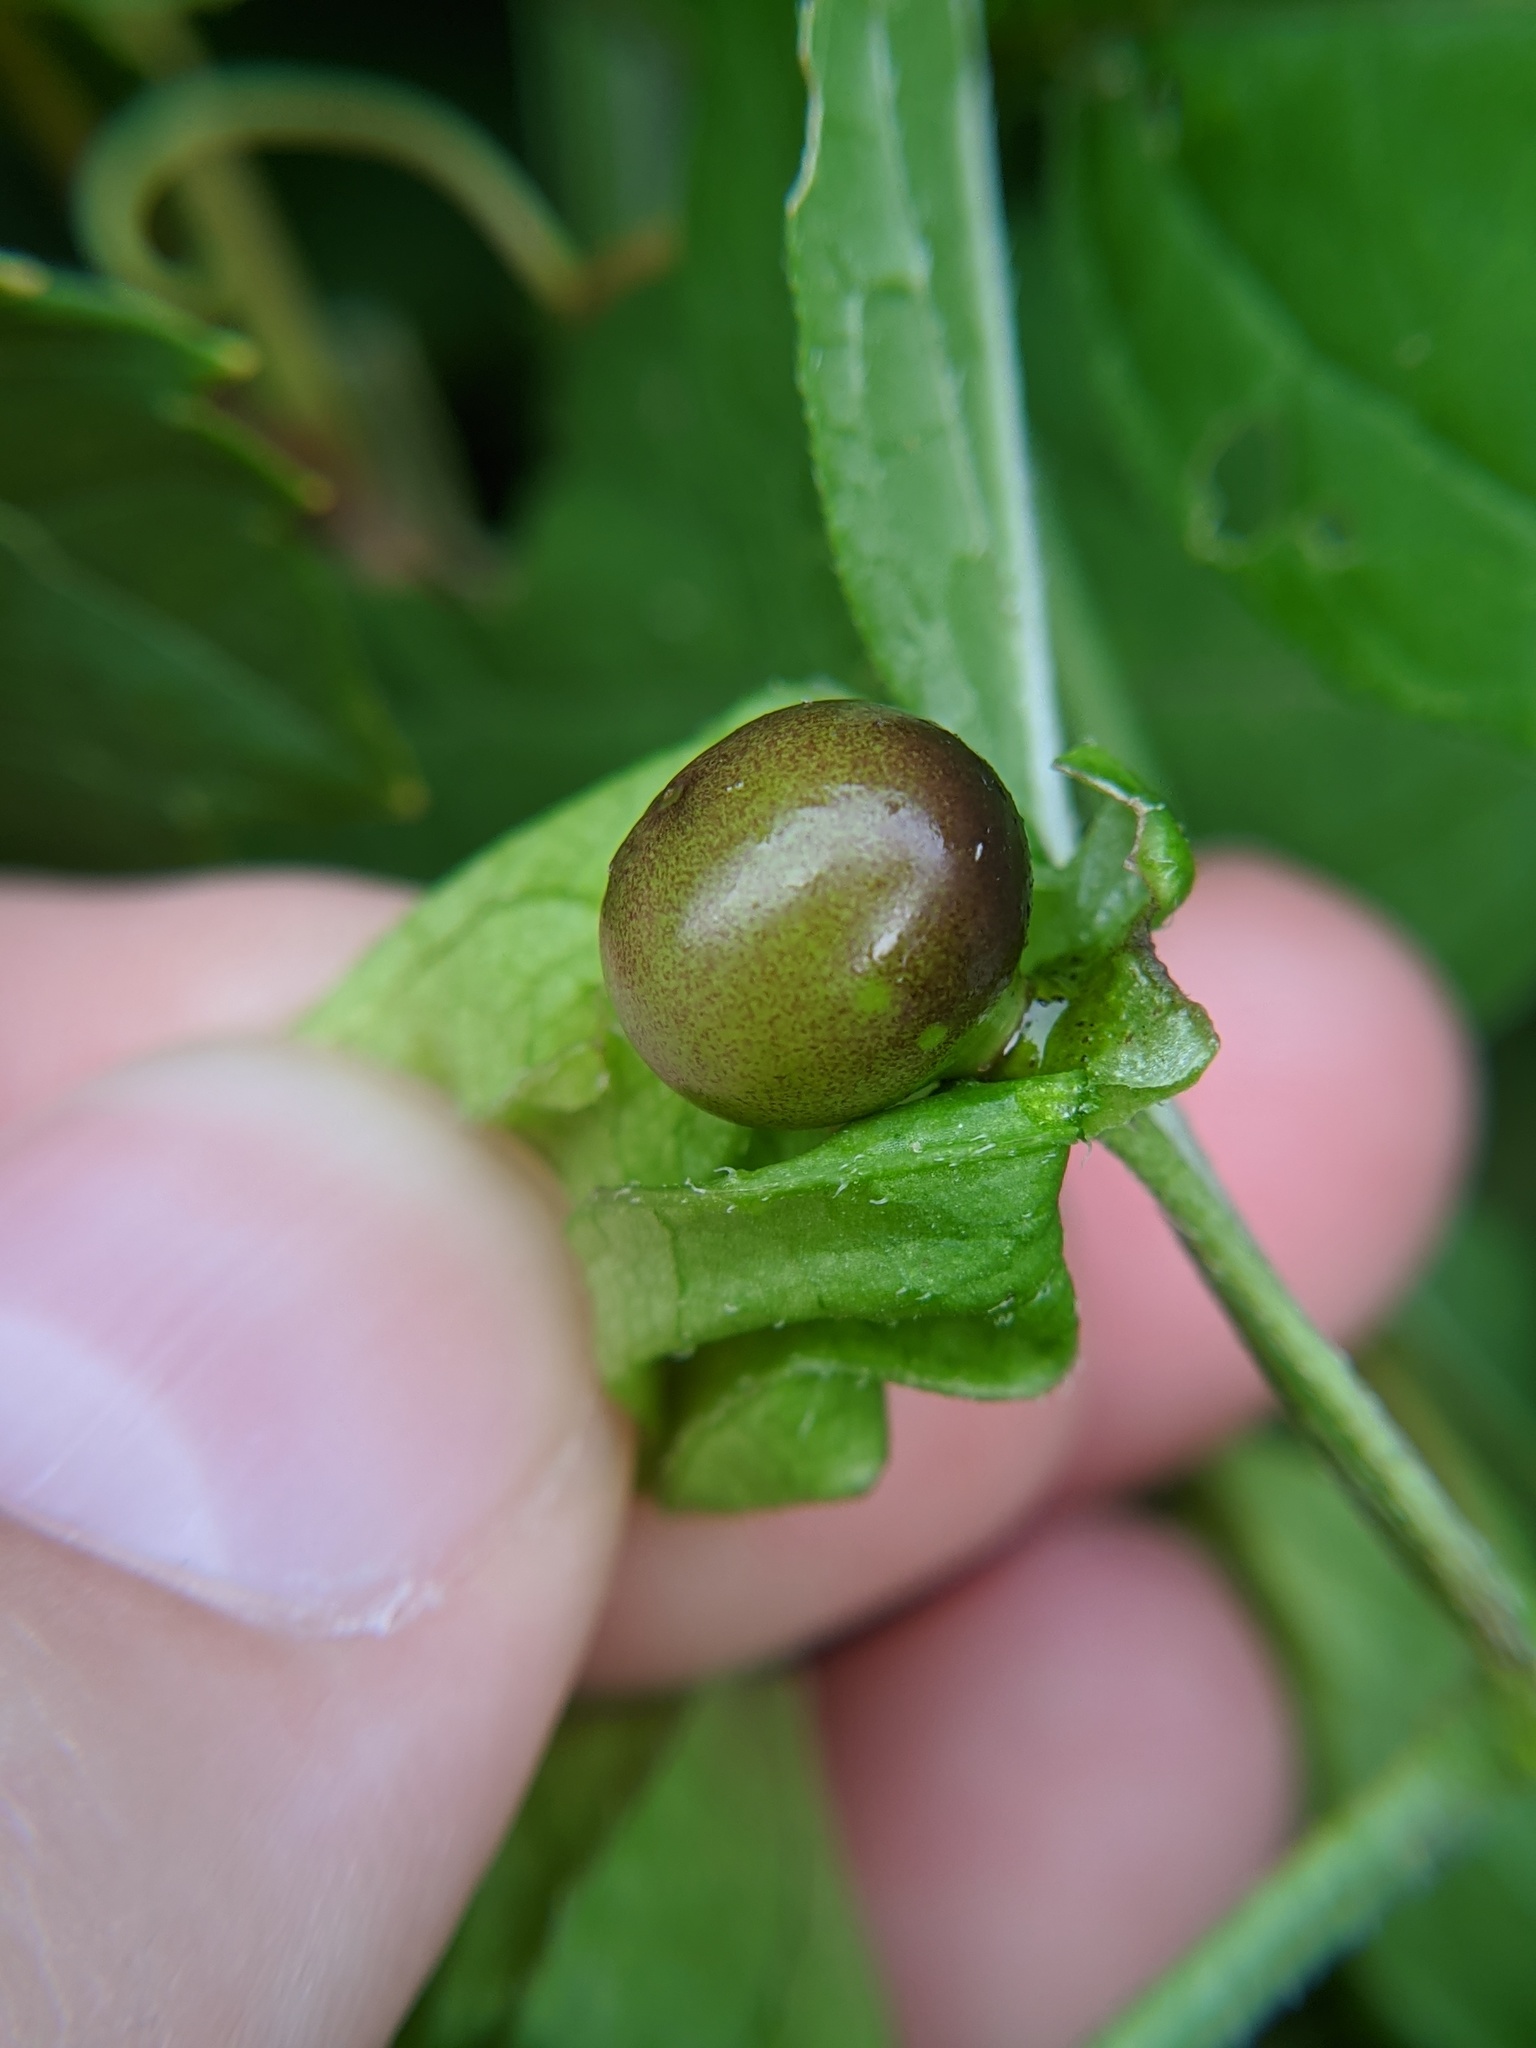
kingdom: Plantae
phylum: Tracheophyta
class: Magnoliopsida
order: Solanales
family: Solanaceae
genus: Physalis
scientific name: Physalis longifolia
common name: Common ground-cherry
